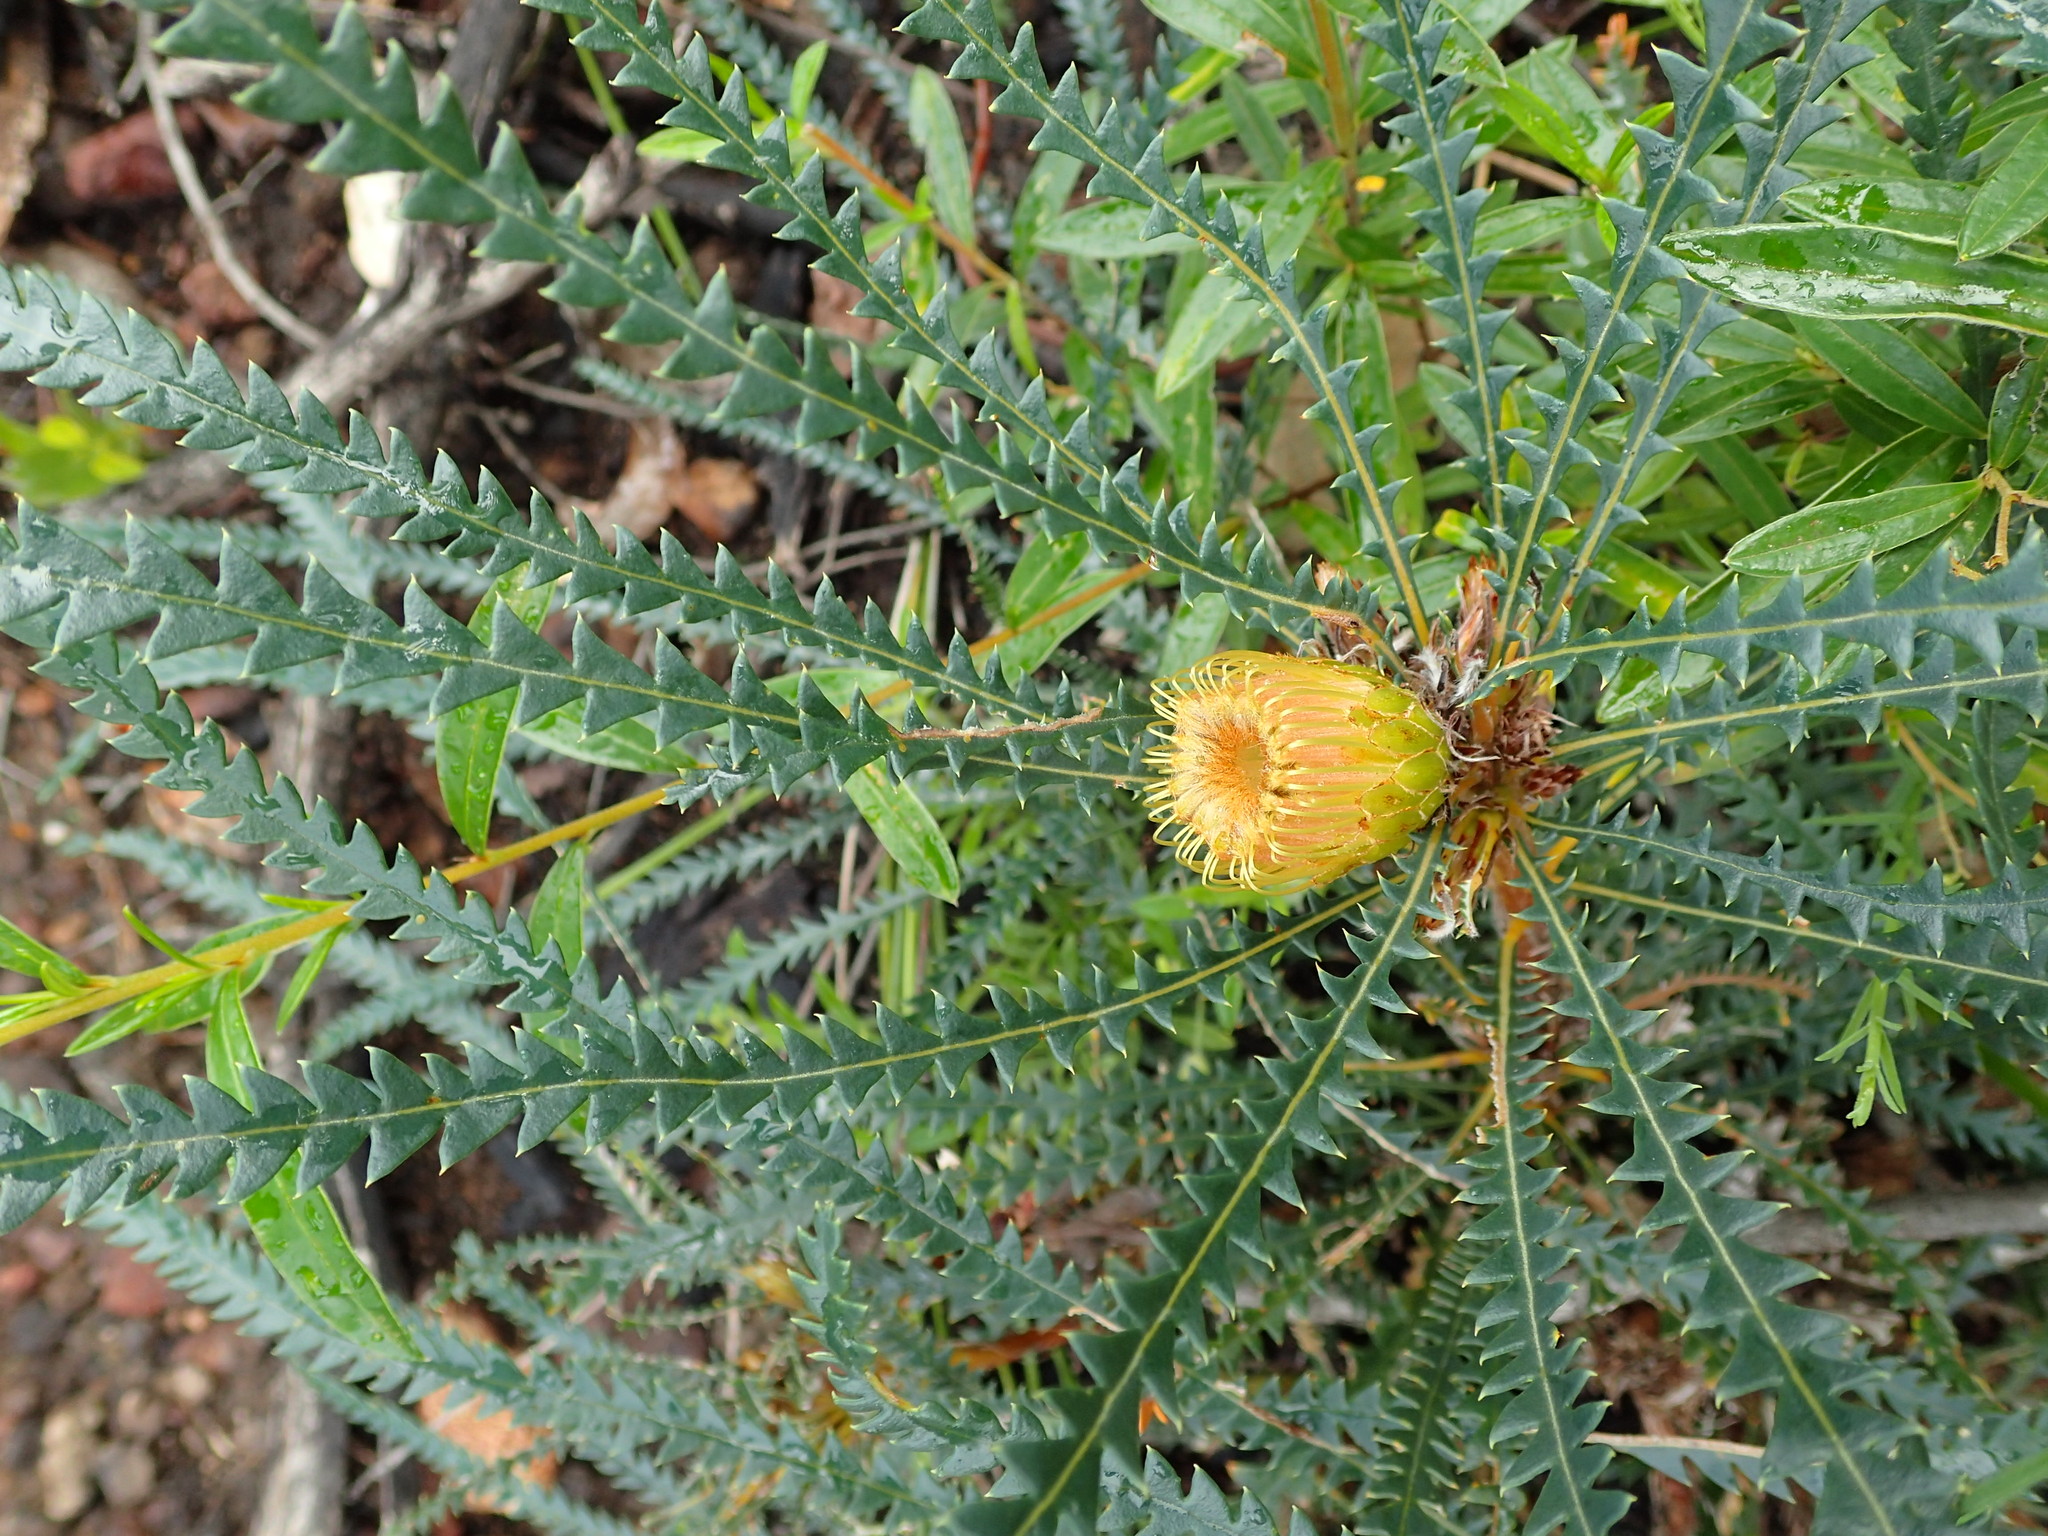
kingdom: Plantae
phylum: Tracheophyta
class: Magnoliopsida
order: Proteales
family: Proteaceae
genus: Banksia
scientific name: Banksia dallanneyi
